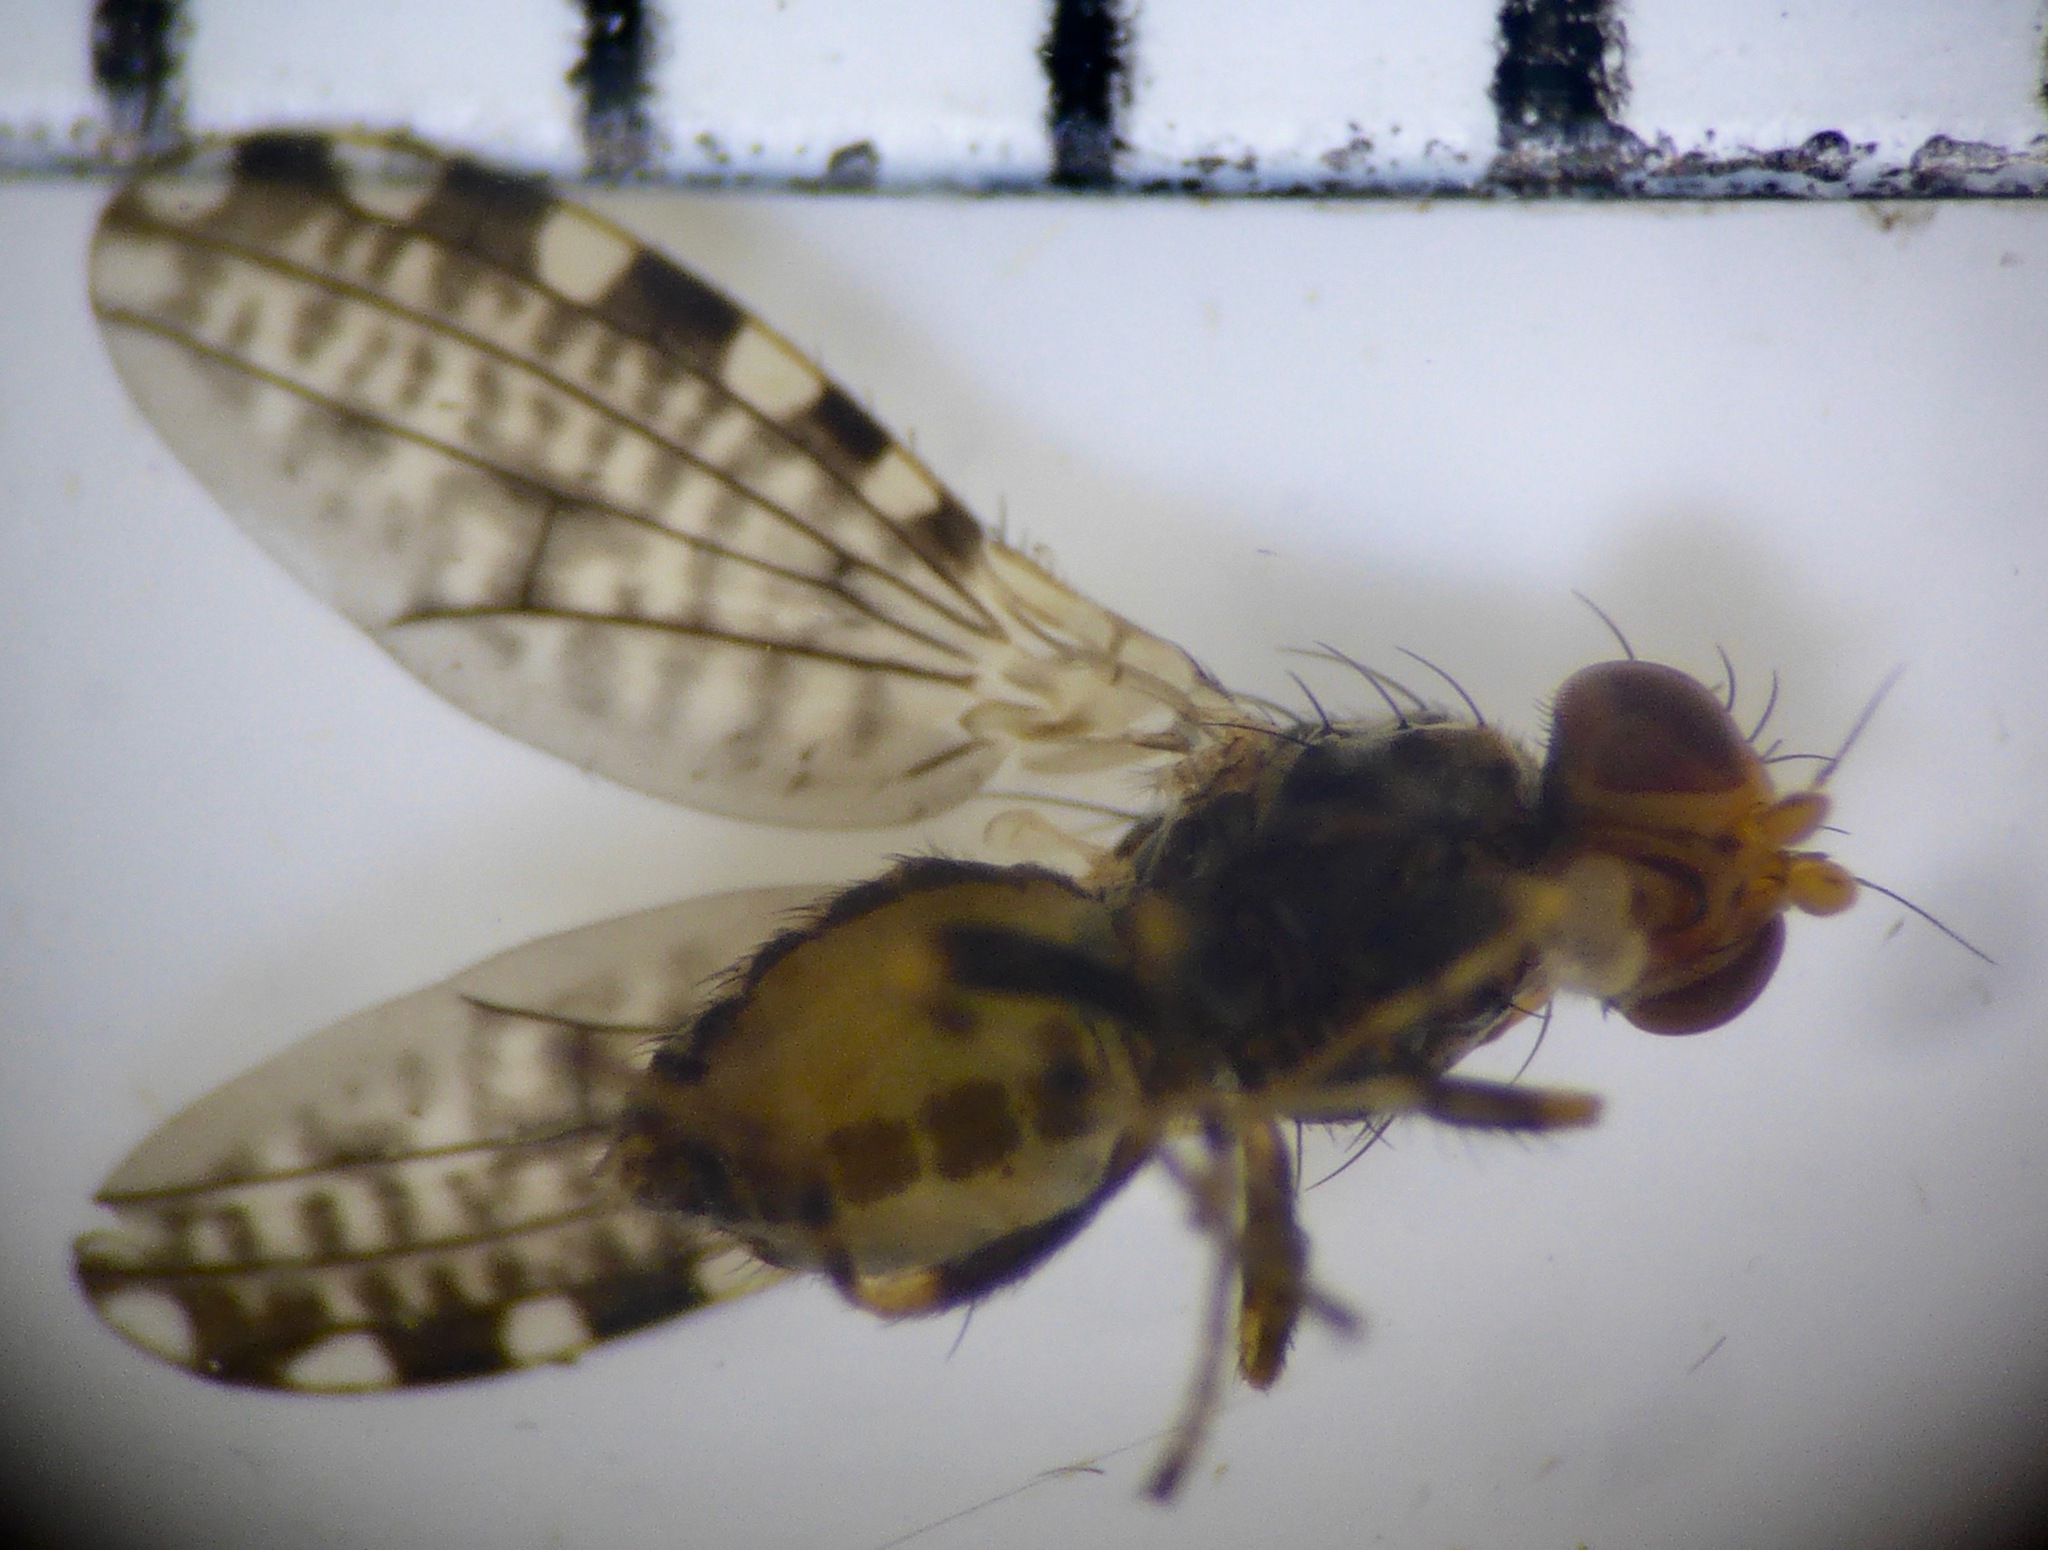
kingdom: Animalia
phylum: Arthropoda
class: Insecta
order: Diptera
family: Heleomyzidae
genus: Xeneura
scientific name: Xeneura picata
